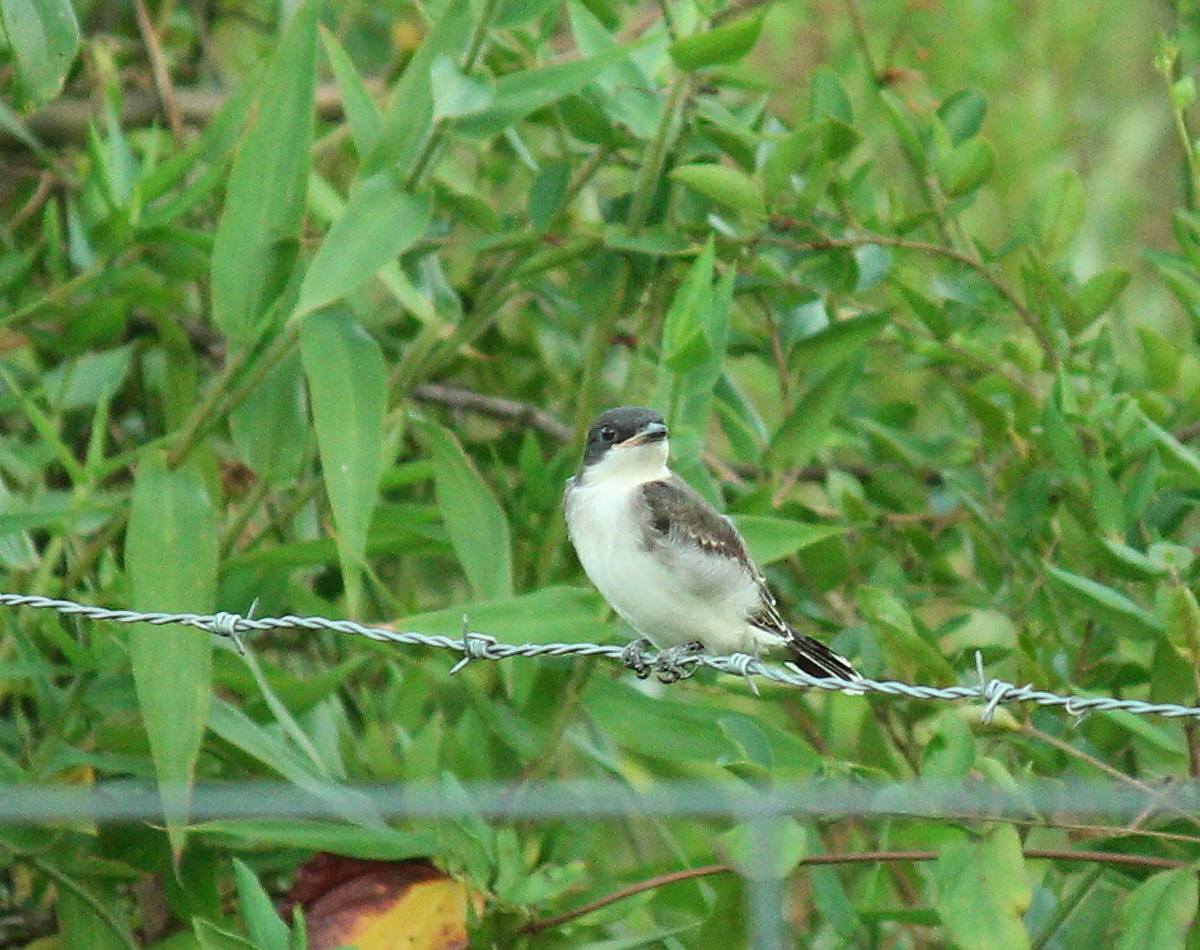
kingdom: Animalia
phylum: Chordata
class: Aves
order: Passeriformes
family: Tyrannidae
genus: Tyrannus
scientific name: Tyrannus tyrannus
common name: Eastern kingbird
